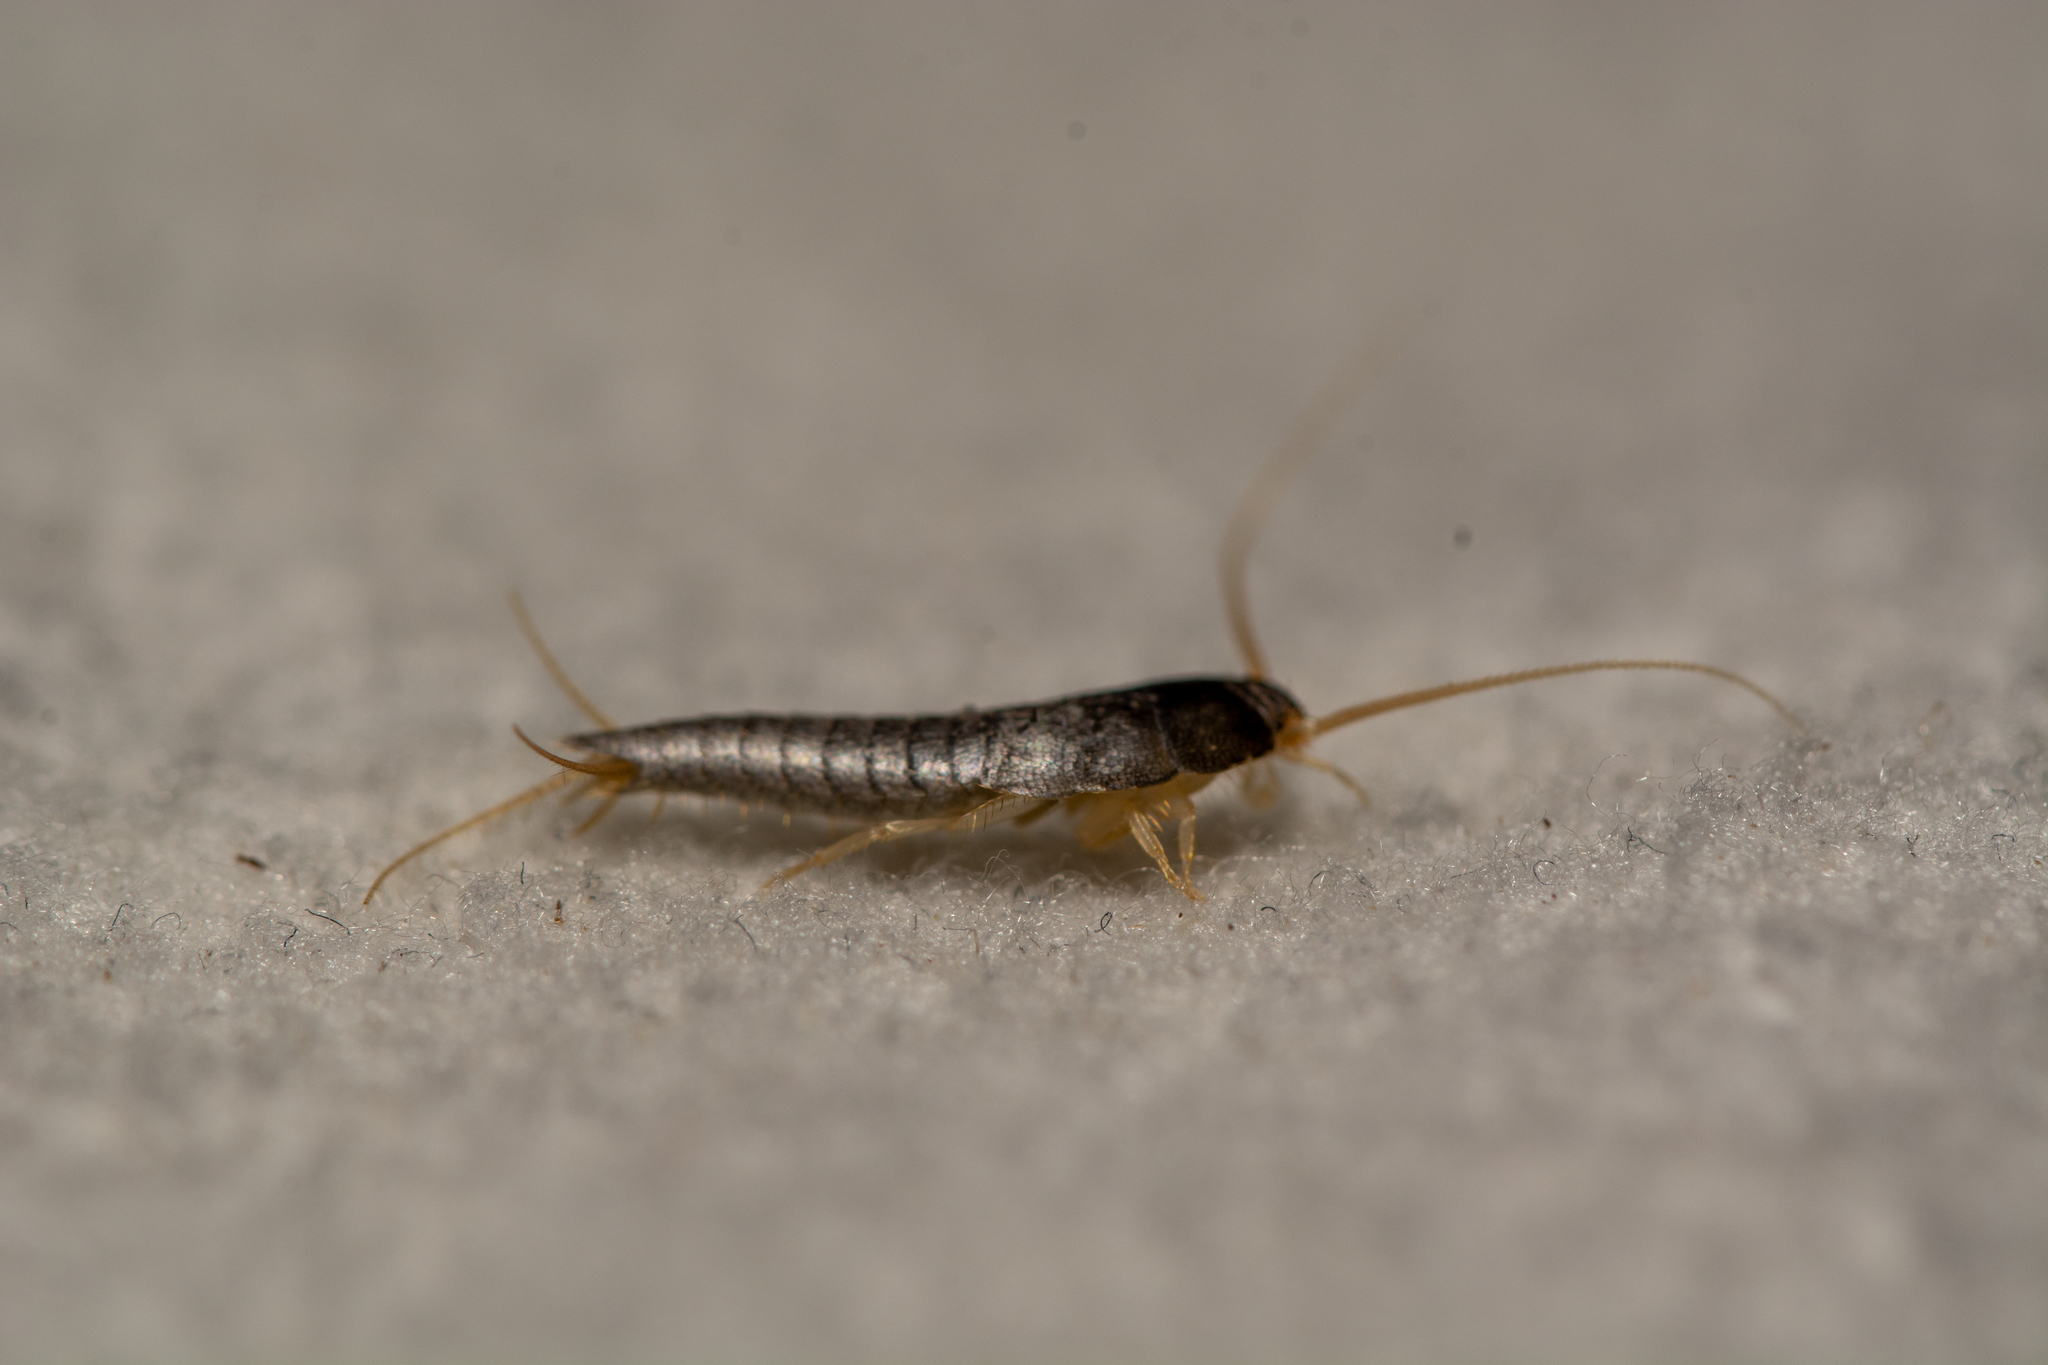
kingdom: Animalia
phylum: Arthropoda
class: Insecta
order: Zygentoma
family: Lepismatidae
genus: Lepisma
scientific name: Lepisma saccharinum
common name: Silverfish
